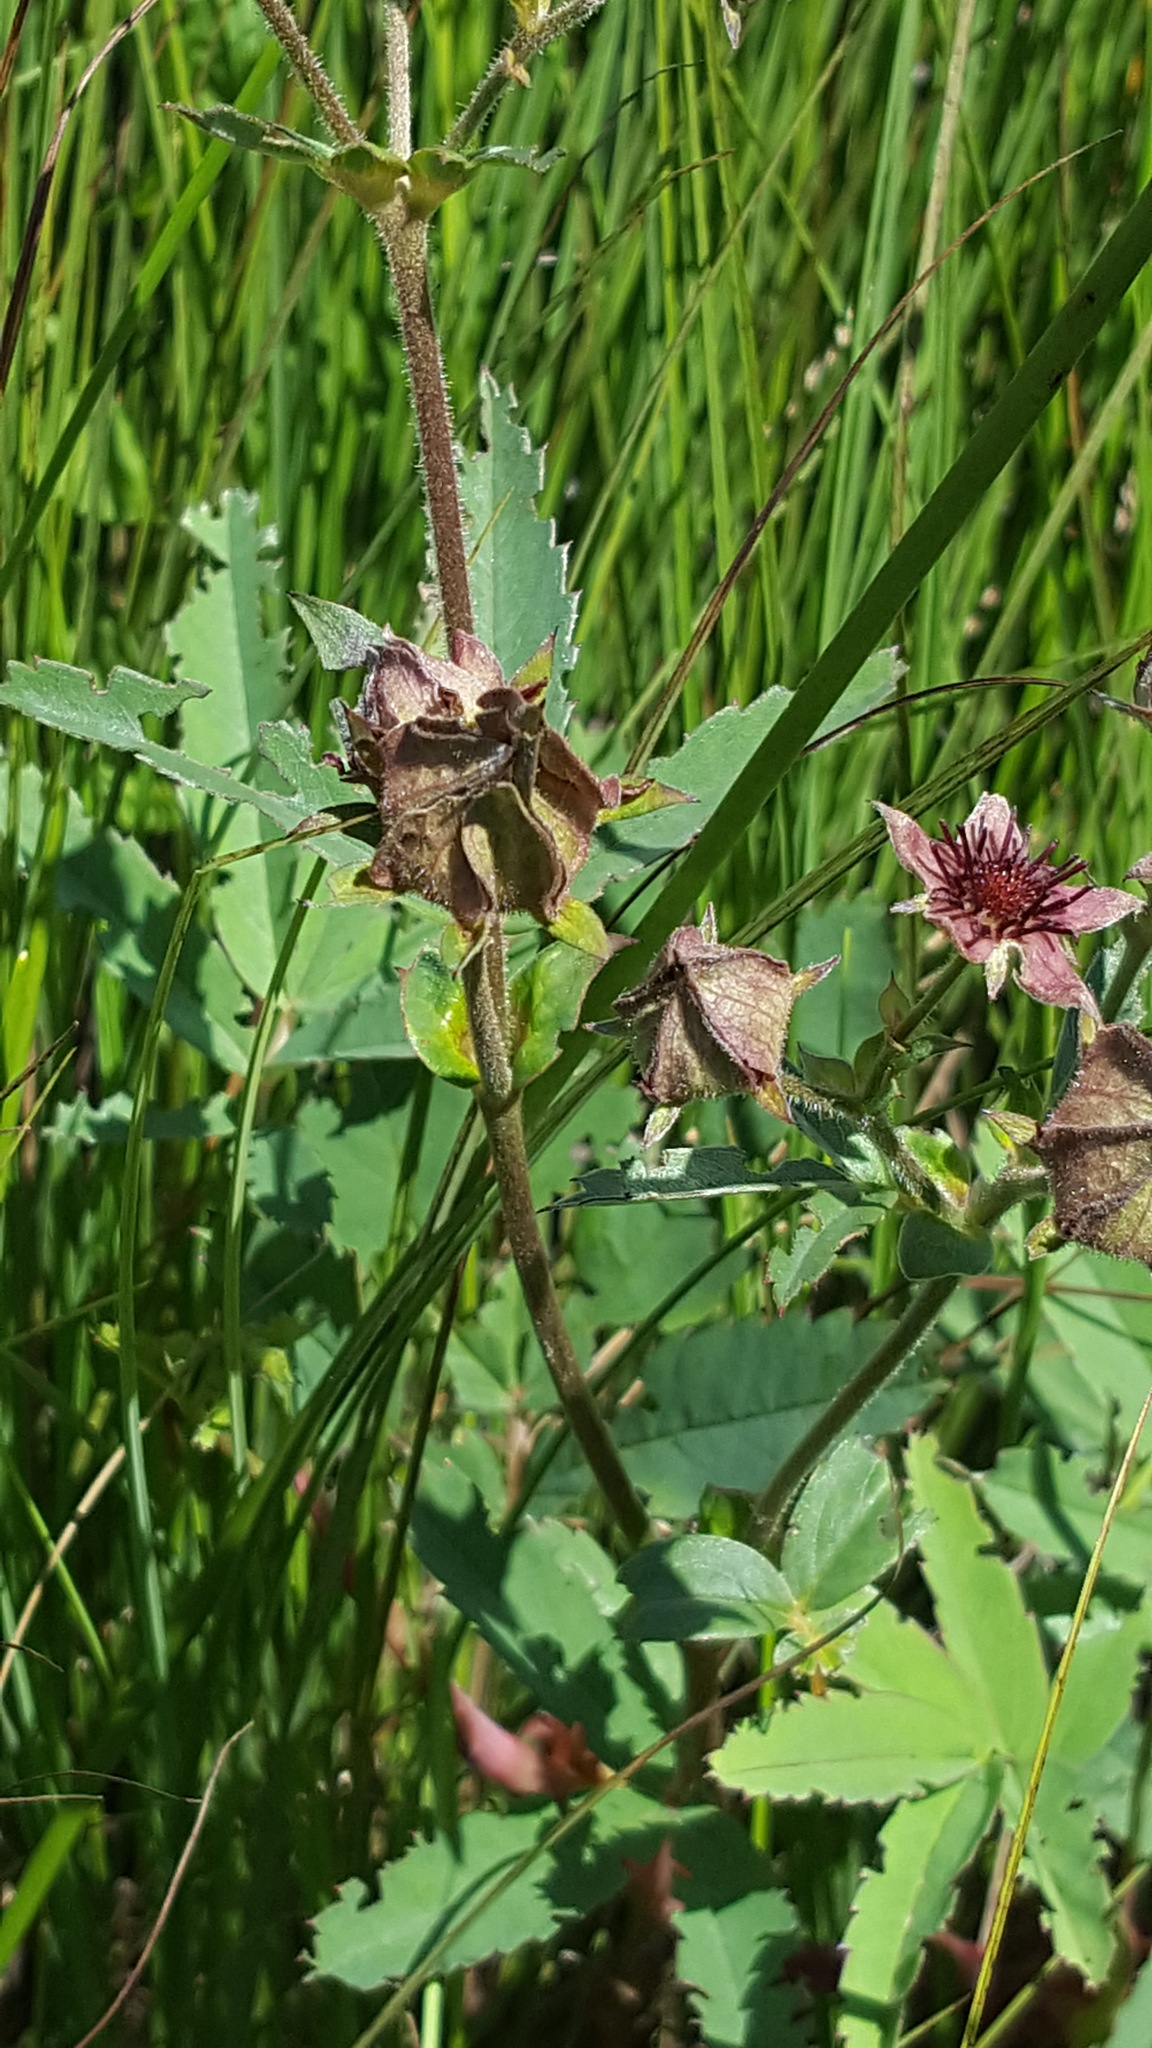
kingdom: Plantae
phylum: Tracheophyta
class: Magnoliopsida
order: Rosales
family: Rosaceae
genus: Comarum
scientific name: Comarum palustre
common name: Marsh cinquefoil
